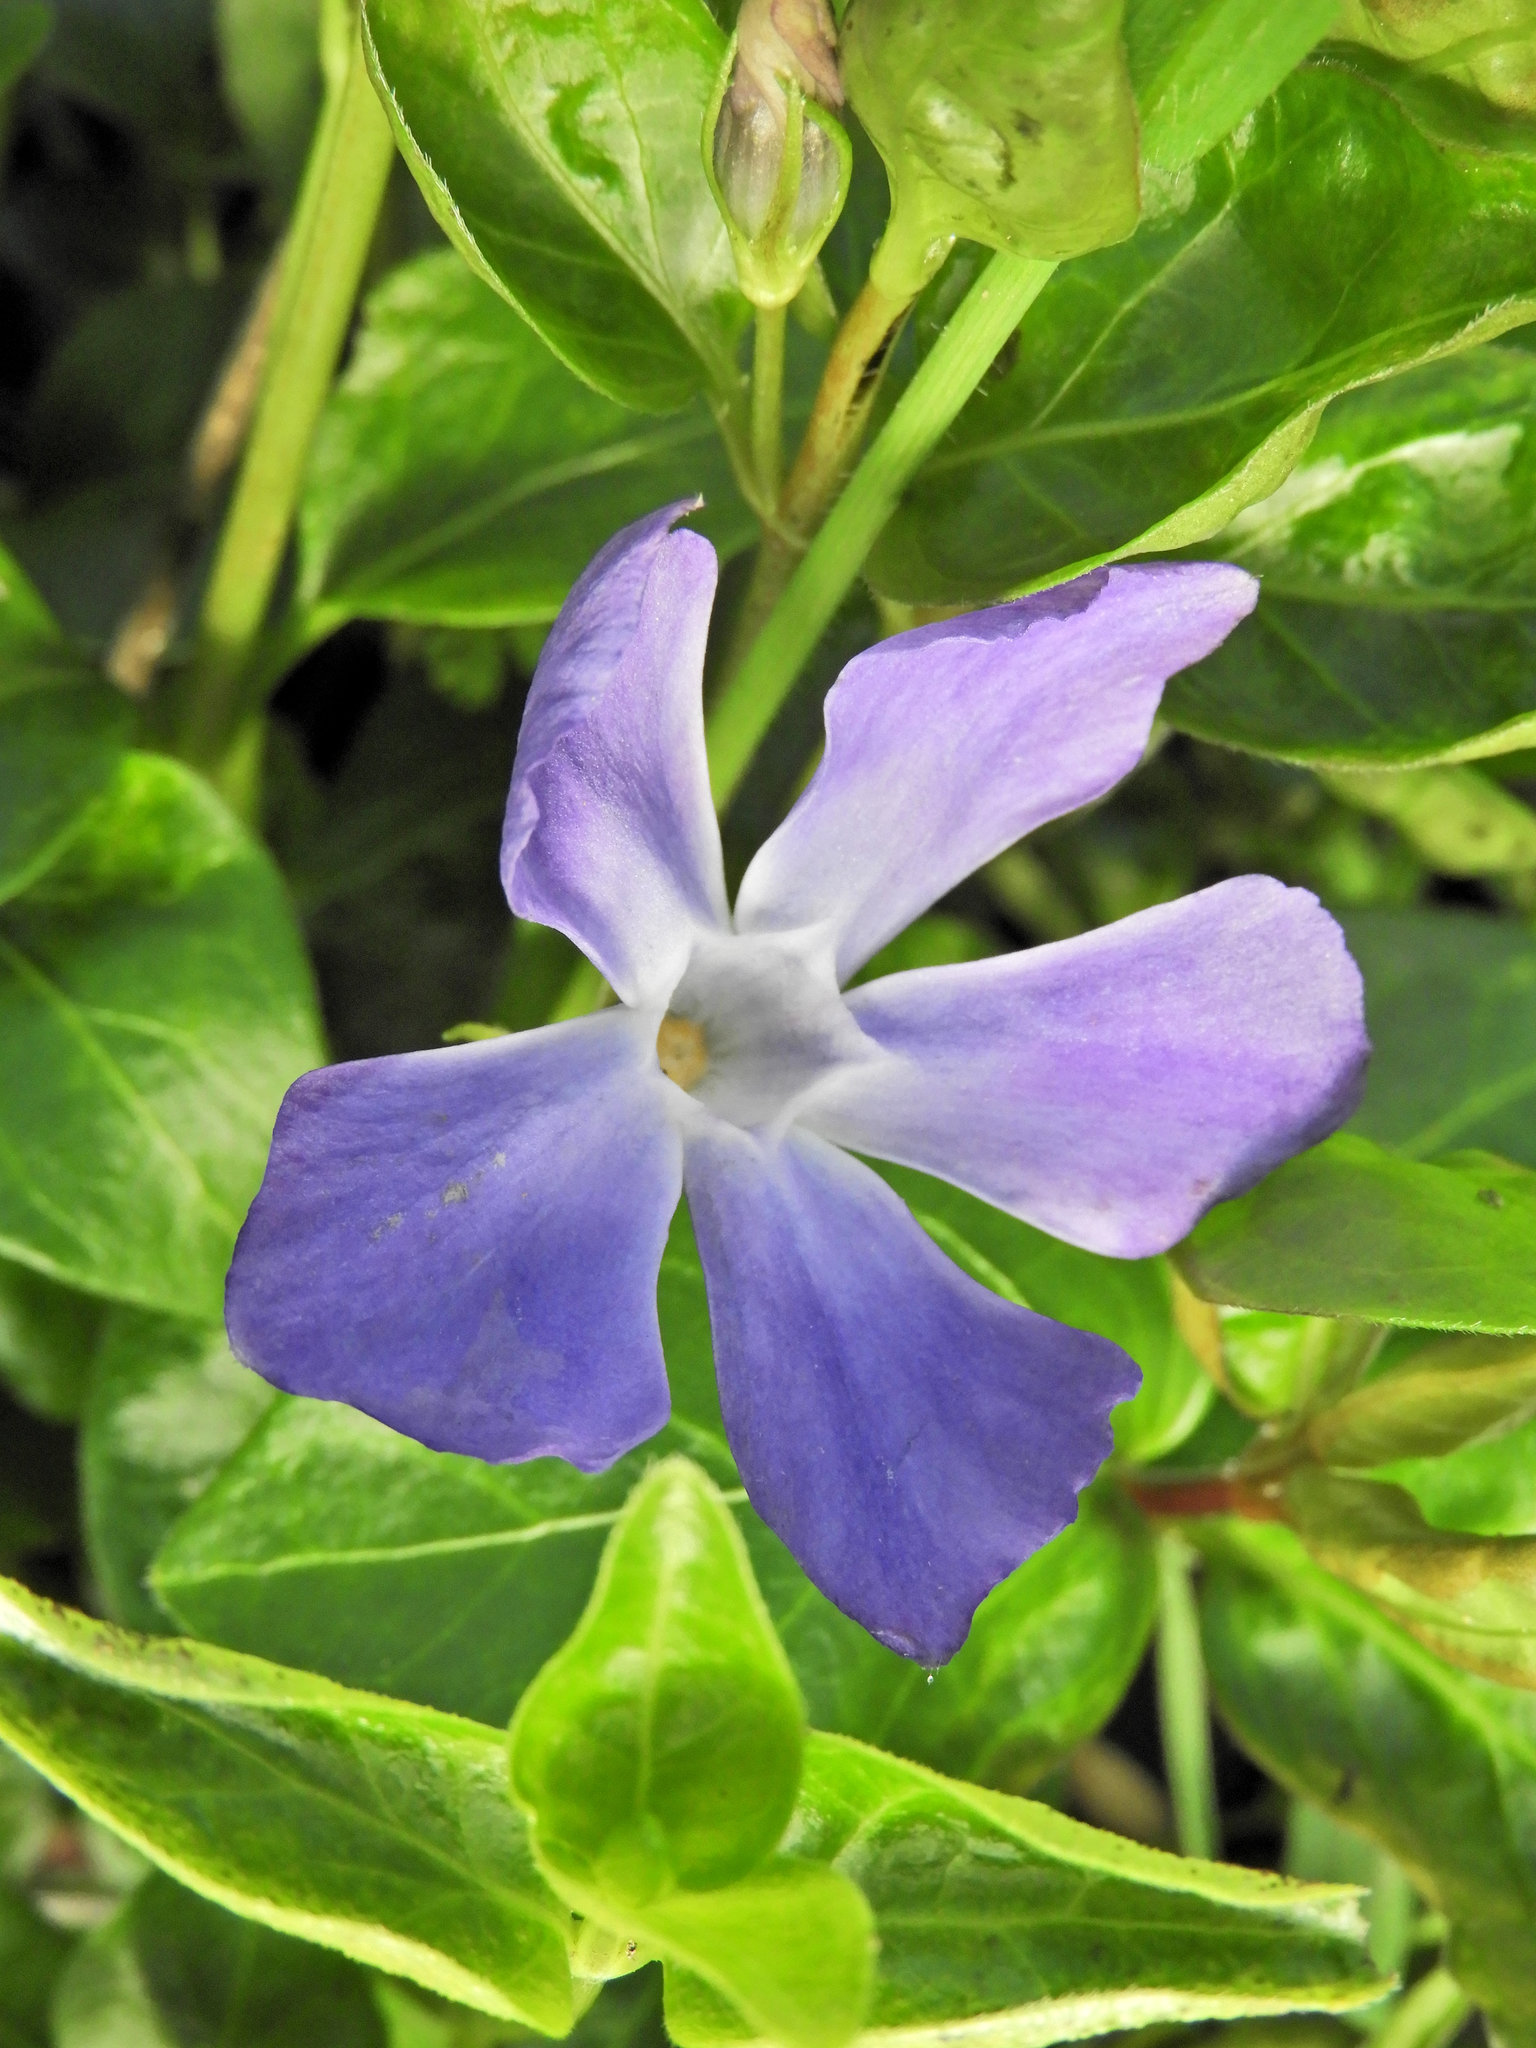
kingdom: Plantae
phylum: Tracheophyta
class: Magnoliopsida
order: Gentianales
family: Apocynaceae
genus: Vinca
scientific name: Vinca major
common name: Greater periwinkle
